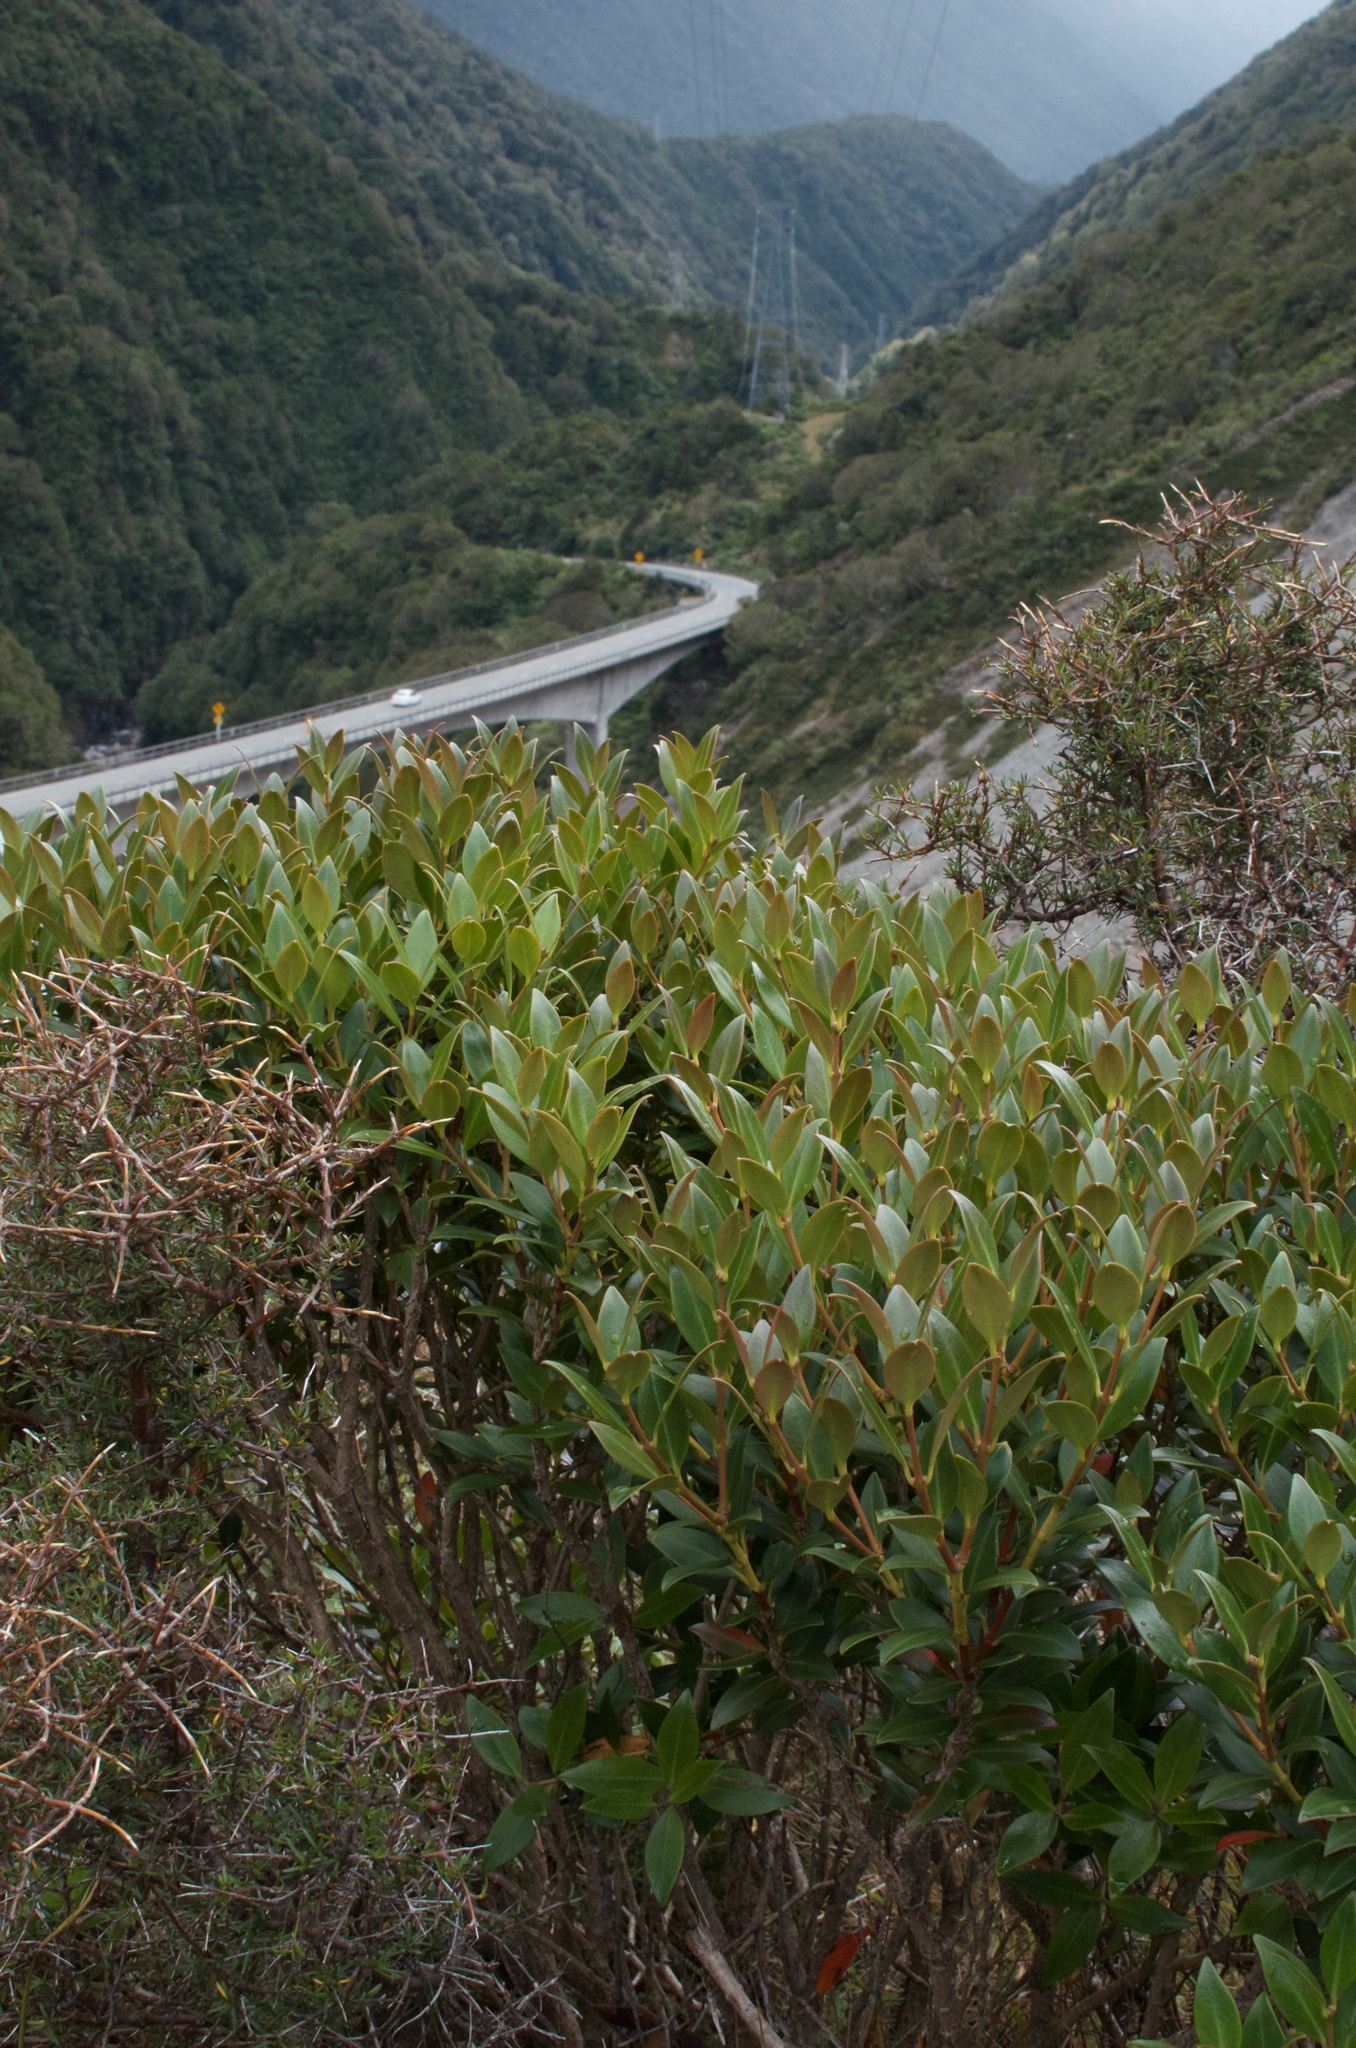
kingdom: Plantae
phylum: Tracheophyta
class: Magnoliopsida
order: Myrtales
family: Myrtaceae
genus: Metrosideros
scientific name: Metrosideros umbellata
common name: Southern rata
